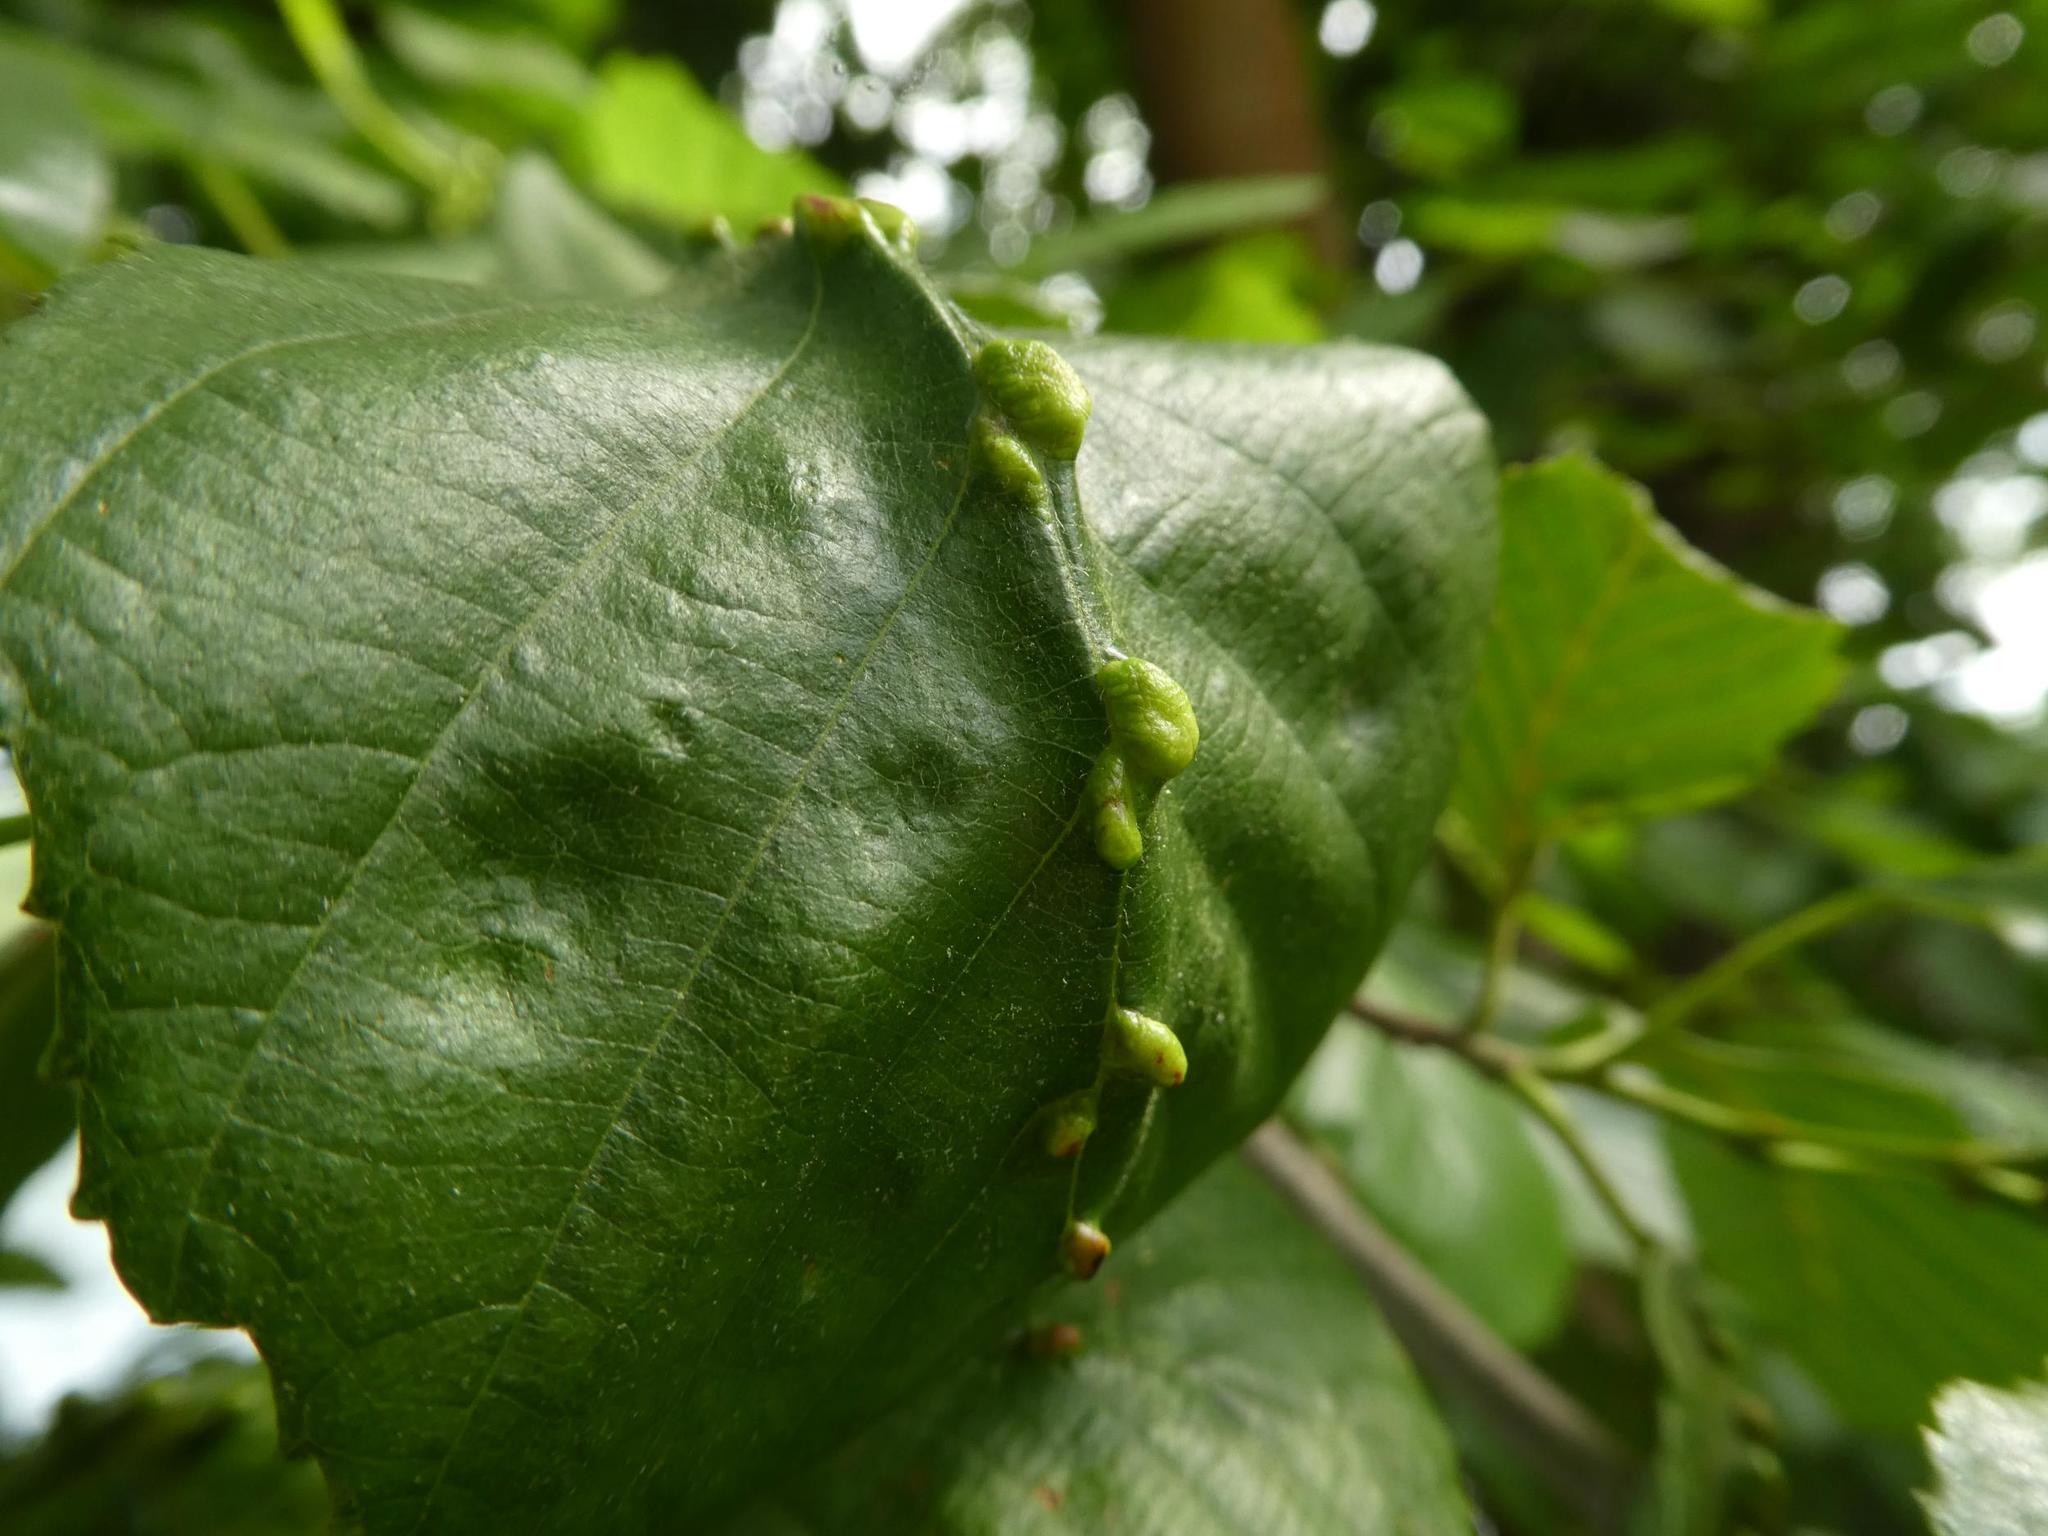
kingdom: Animalia
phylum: Arthropoda
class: Arachnida
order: Trombidiformes
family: Eriophyidae
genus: Eriophyes
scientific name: Eriophyes inangulis
